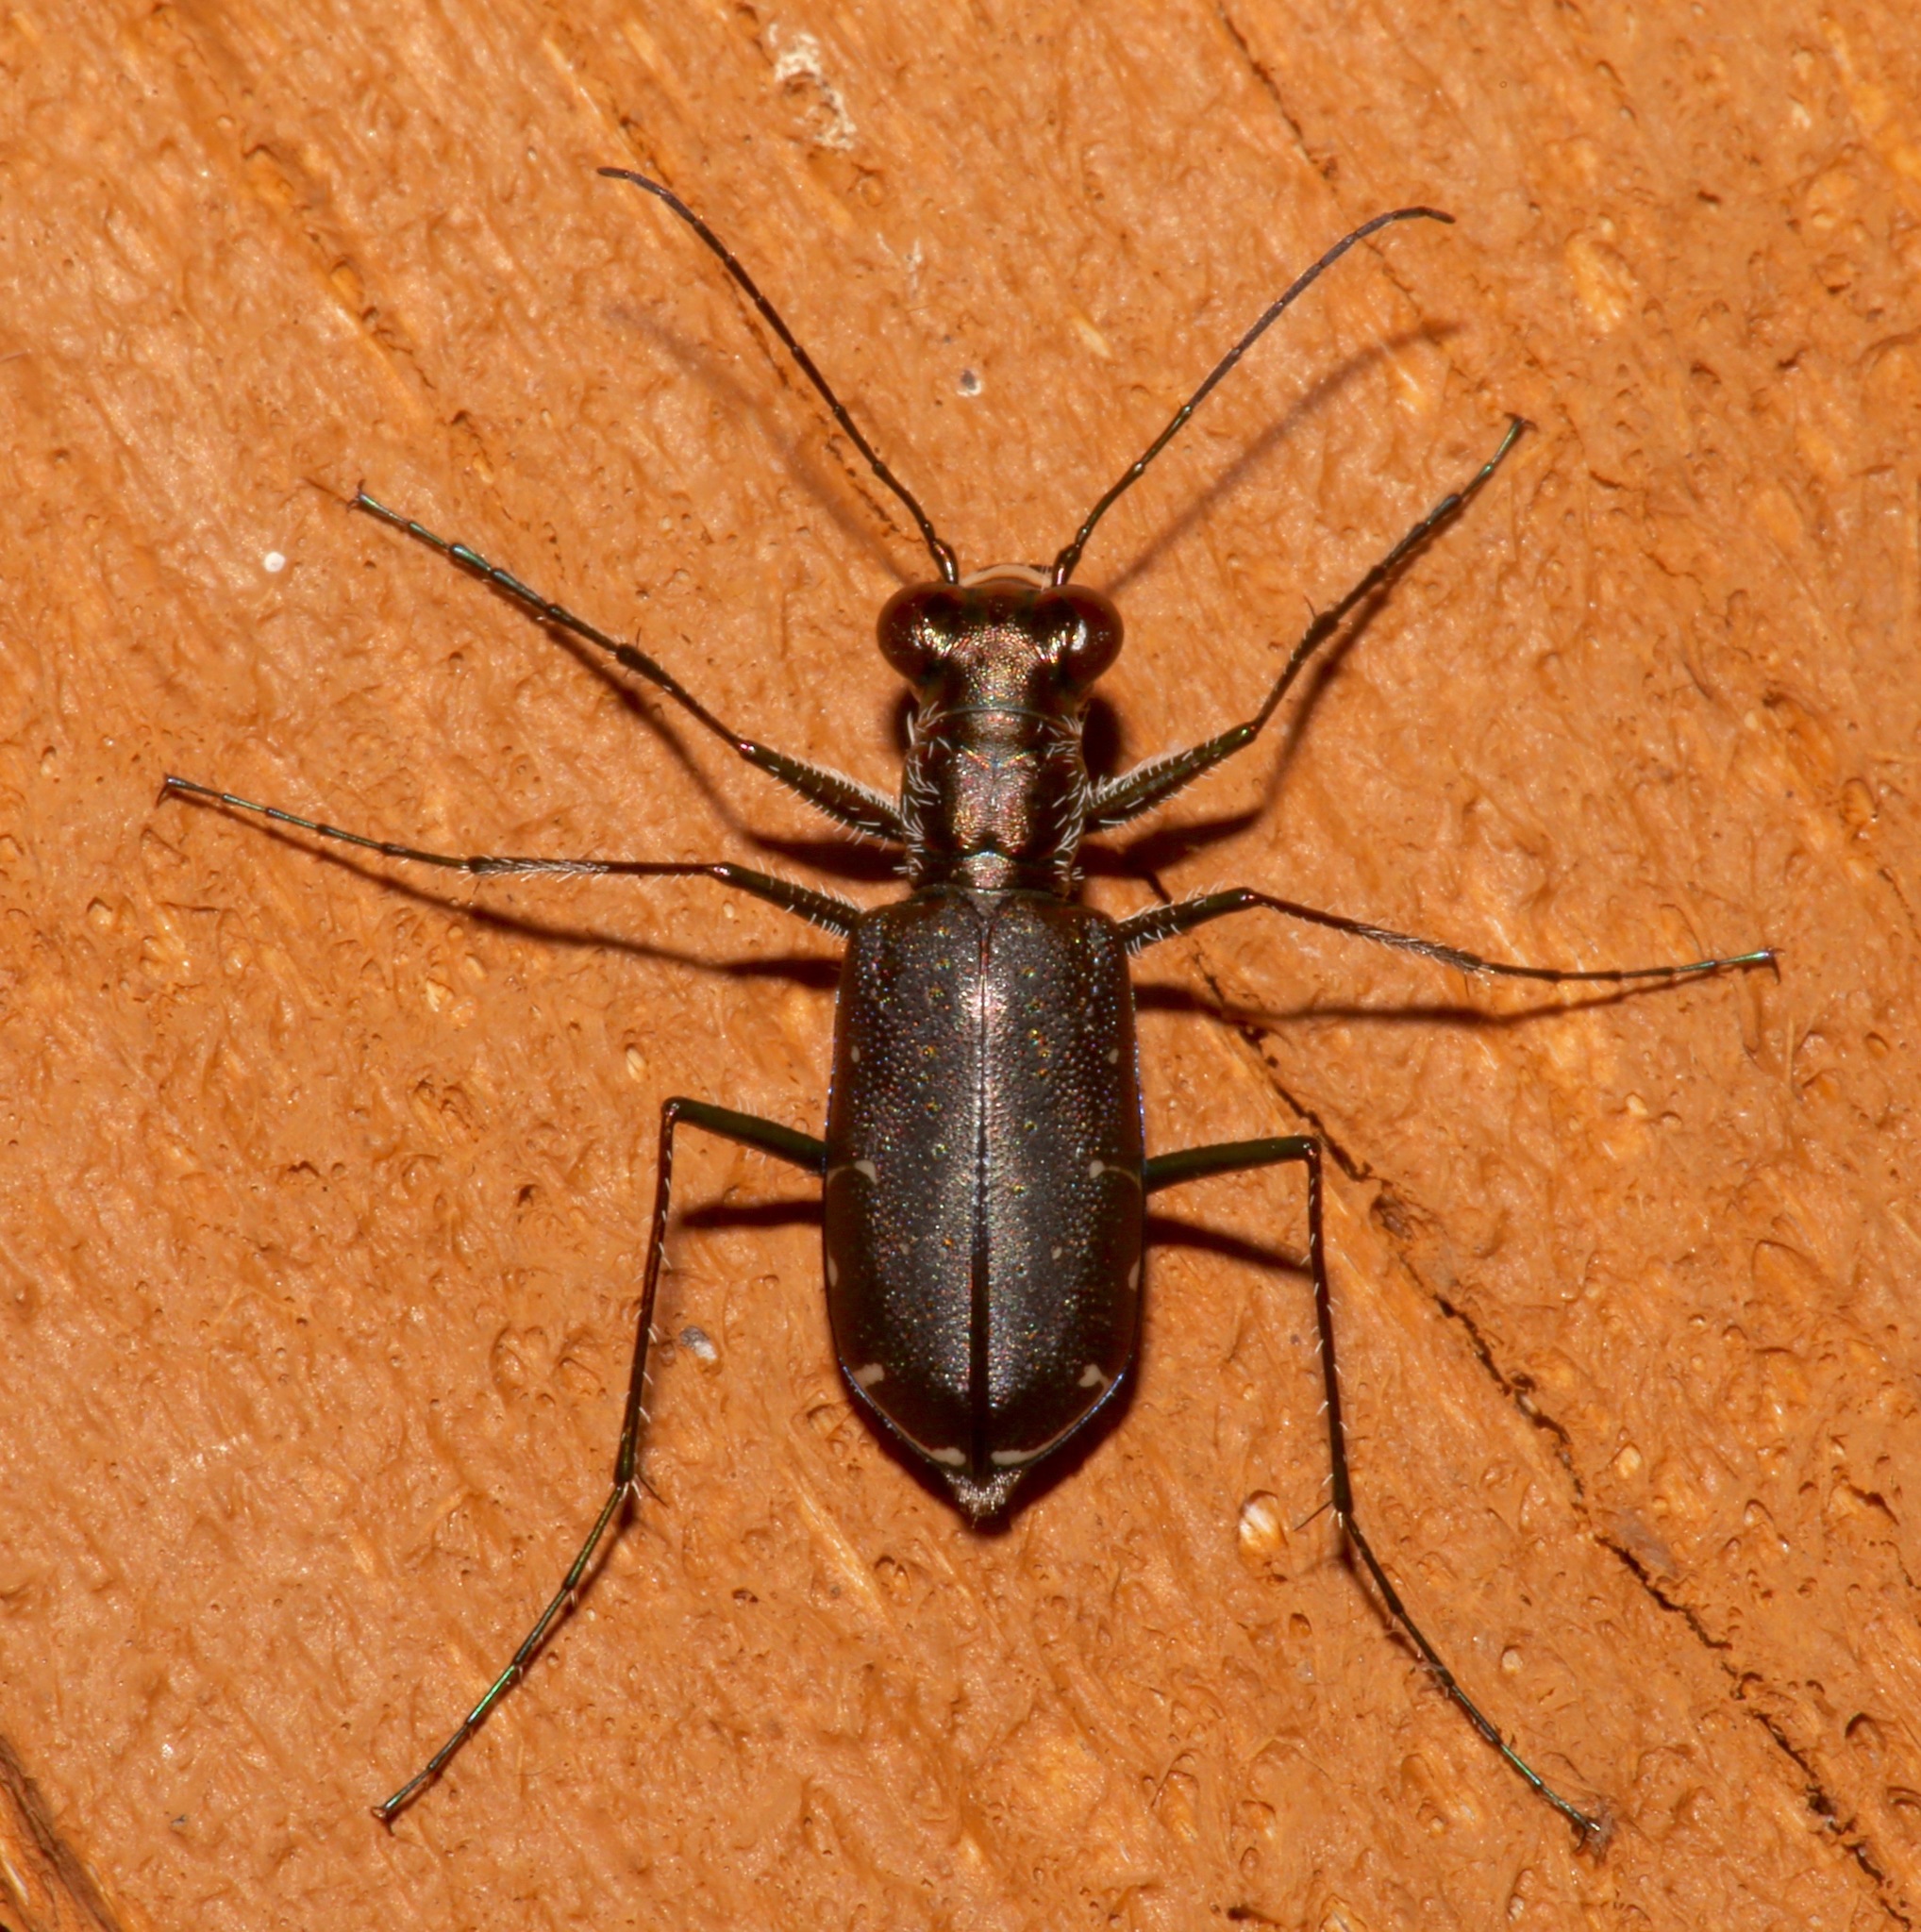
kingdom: Animalia
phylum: Arthropoda
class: Insecta
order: Coleoptera
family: Carabidae
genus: Cicindela
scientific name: Cicindela punctulata
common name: Punctured tiger beetle
